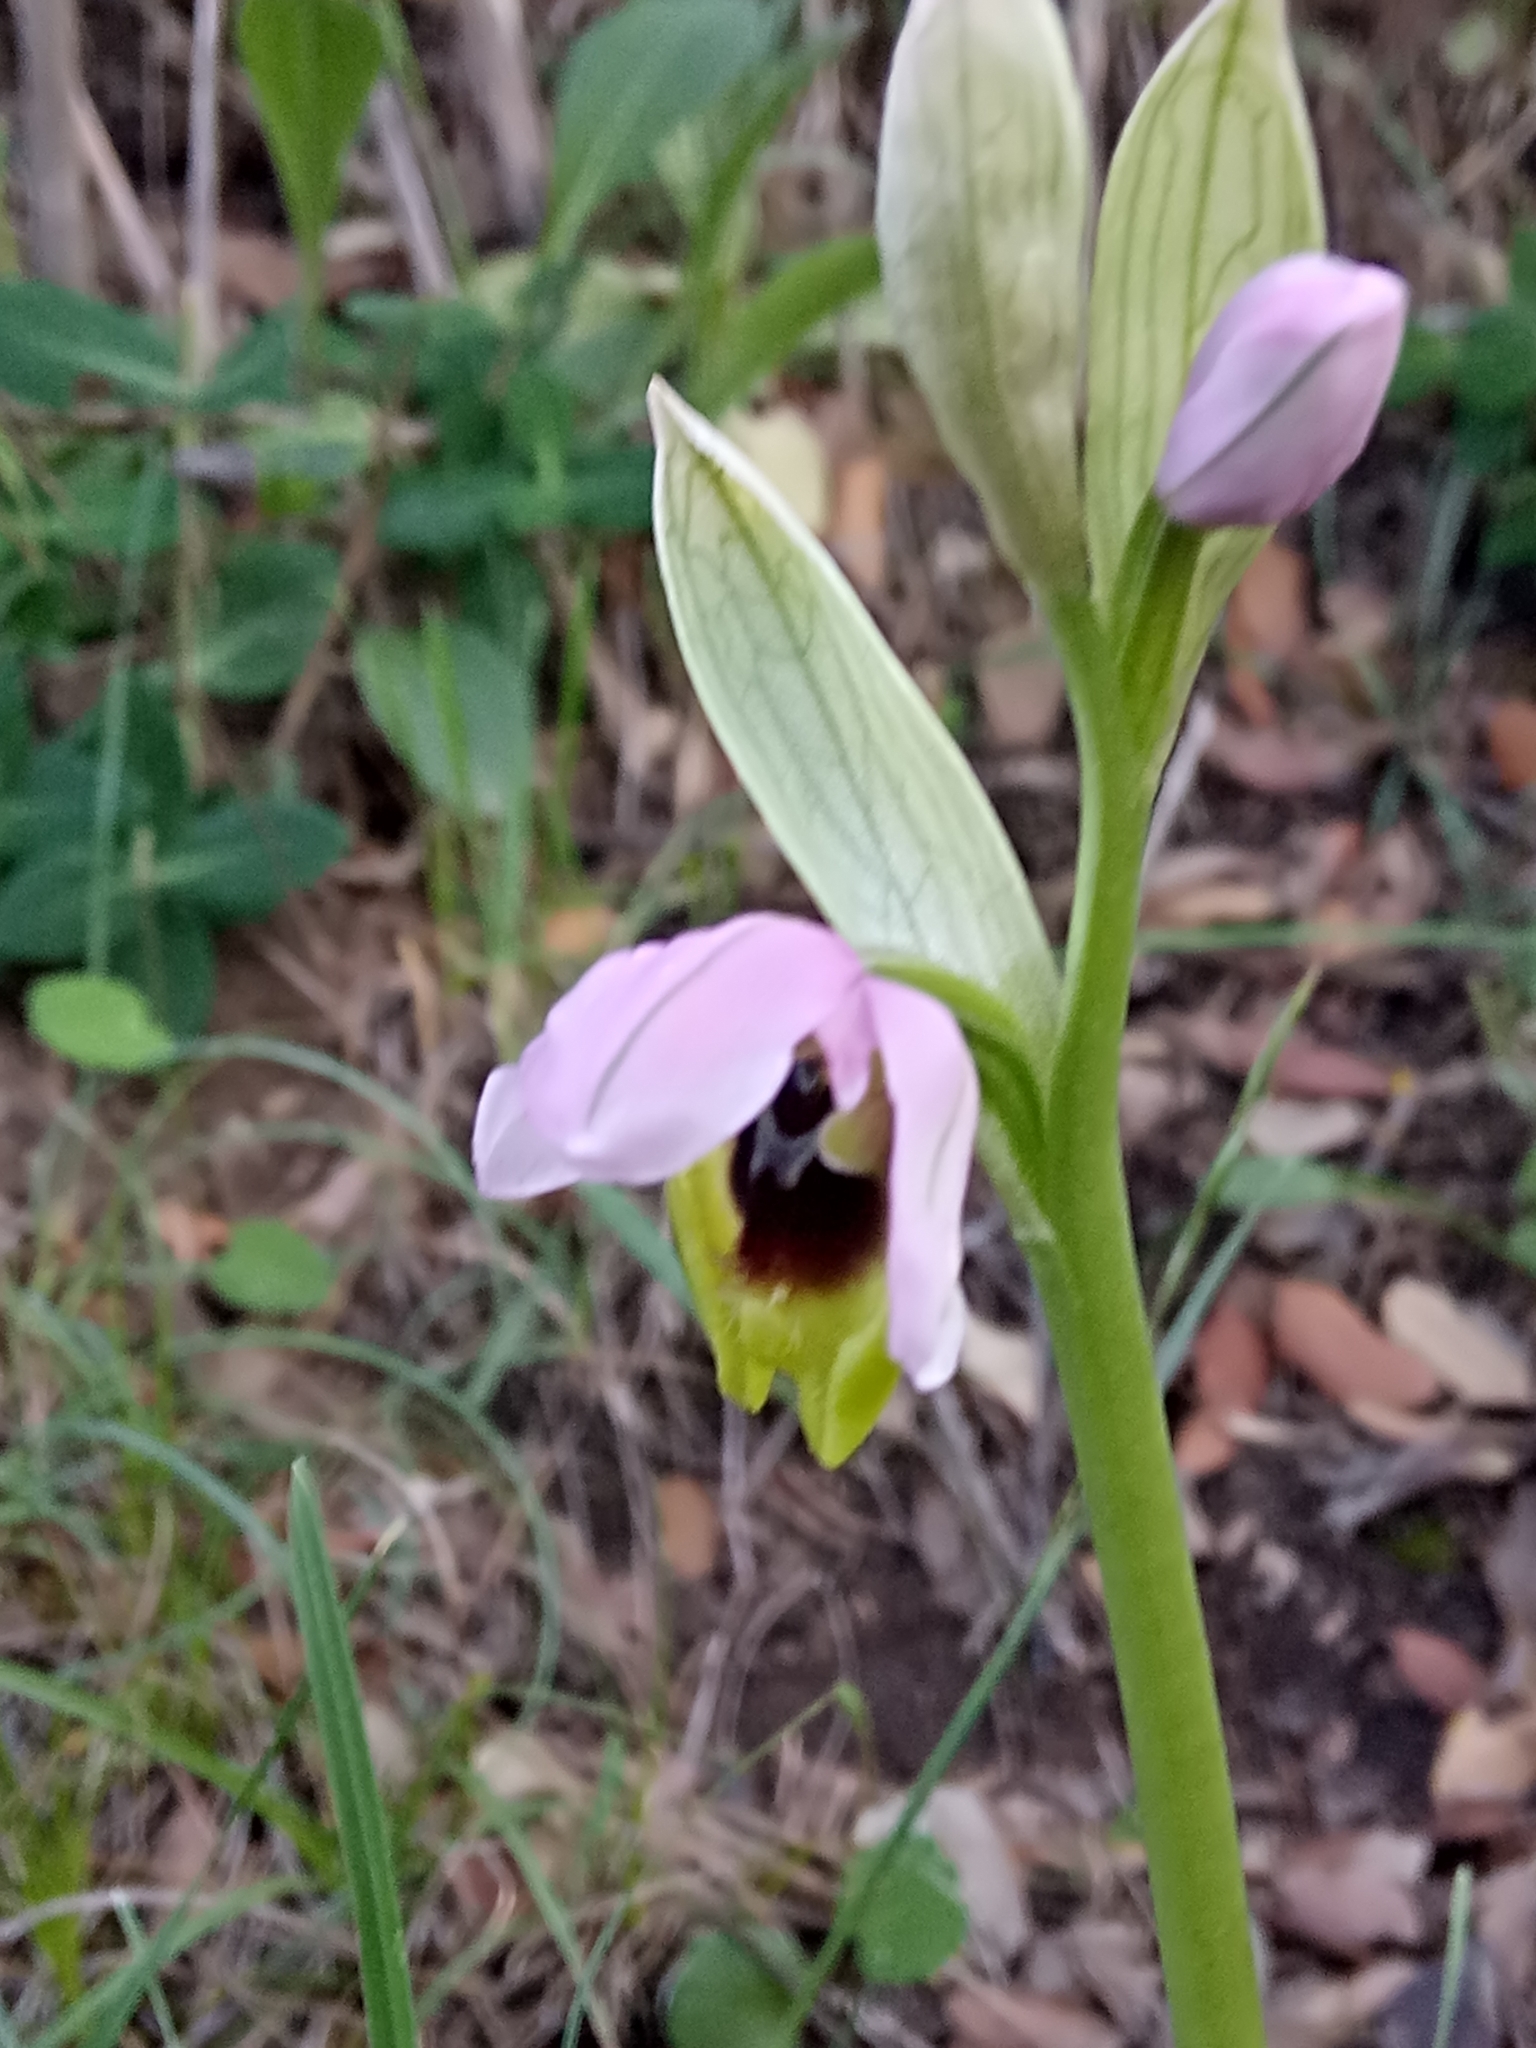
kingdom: Plantae
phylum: Tracheophyta
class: Liliopsida
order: Asparagales
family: Orchidaceae
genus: Ophrys
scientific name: Ophrys tenthredinifera
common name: Sawfly orchid
